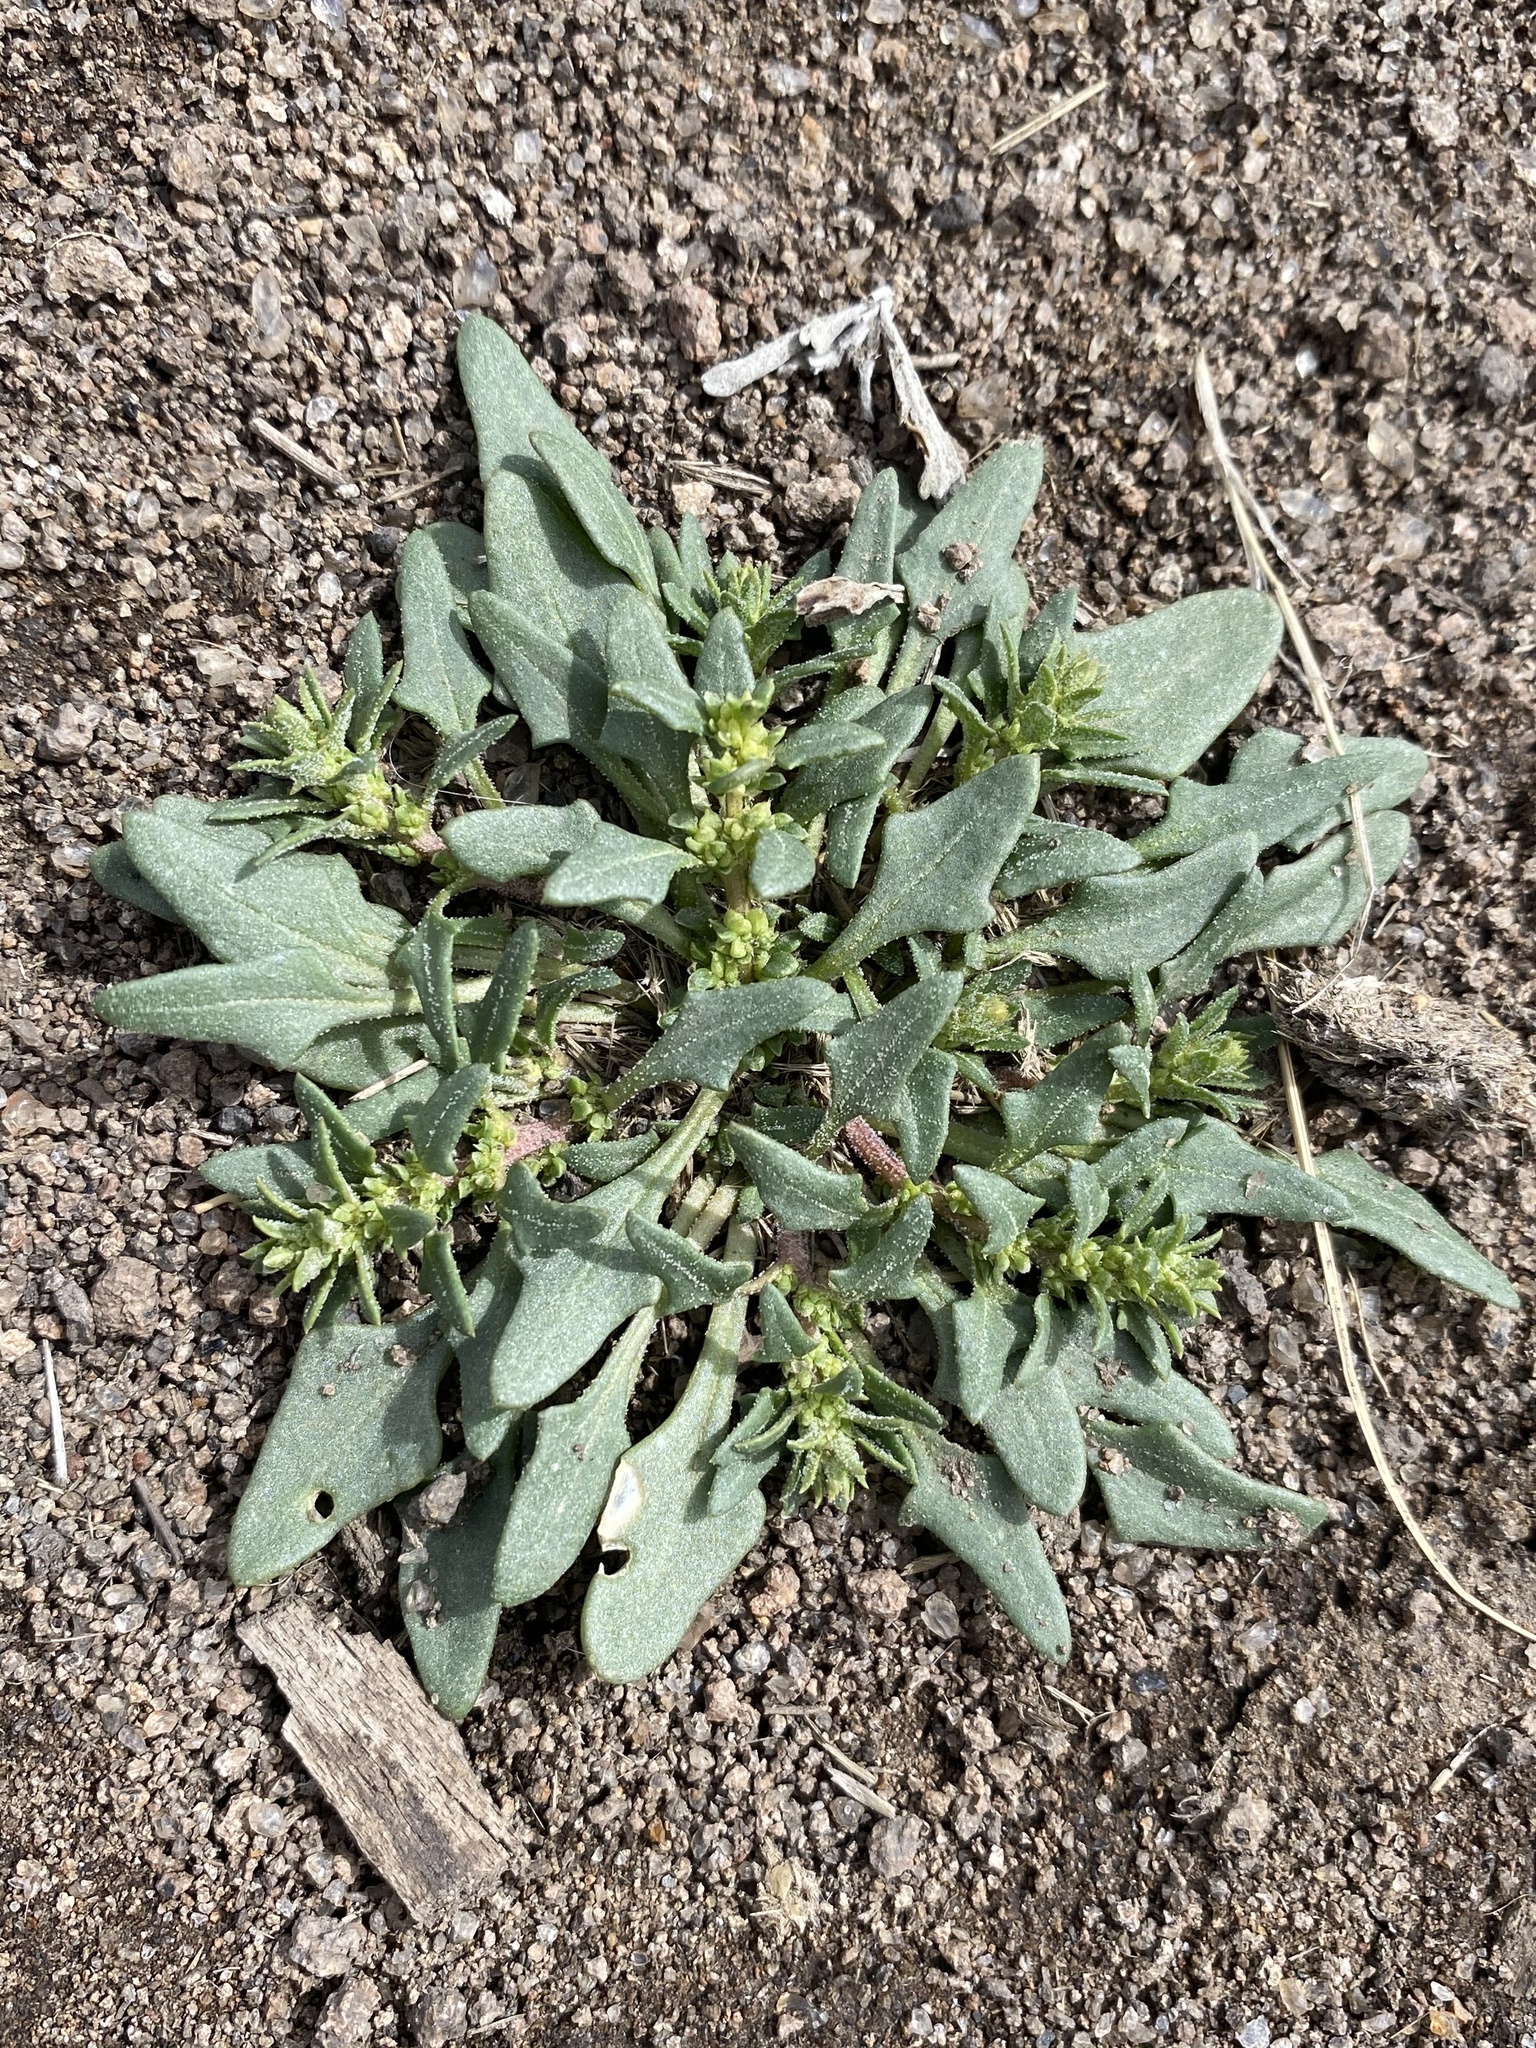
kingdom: Plantae
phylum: Tracheophyta
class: Magnoliopsida
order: Caryophyllales
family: Amaranthaceae
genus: Blitum
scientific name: Blitum nuttallianum
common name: Poverty-weed
